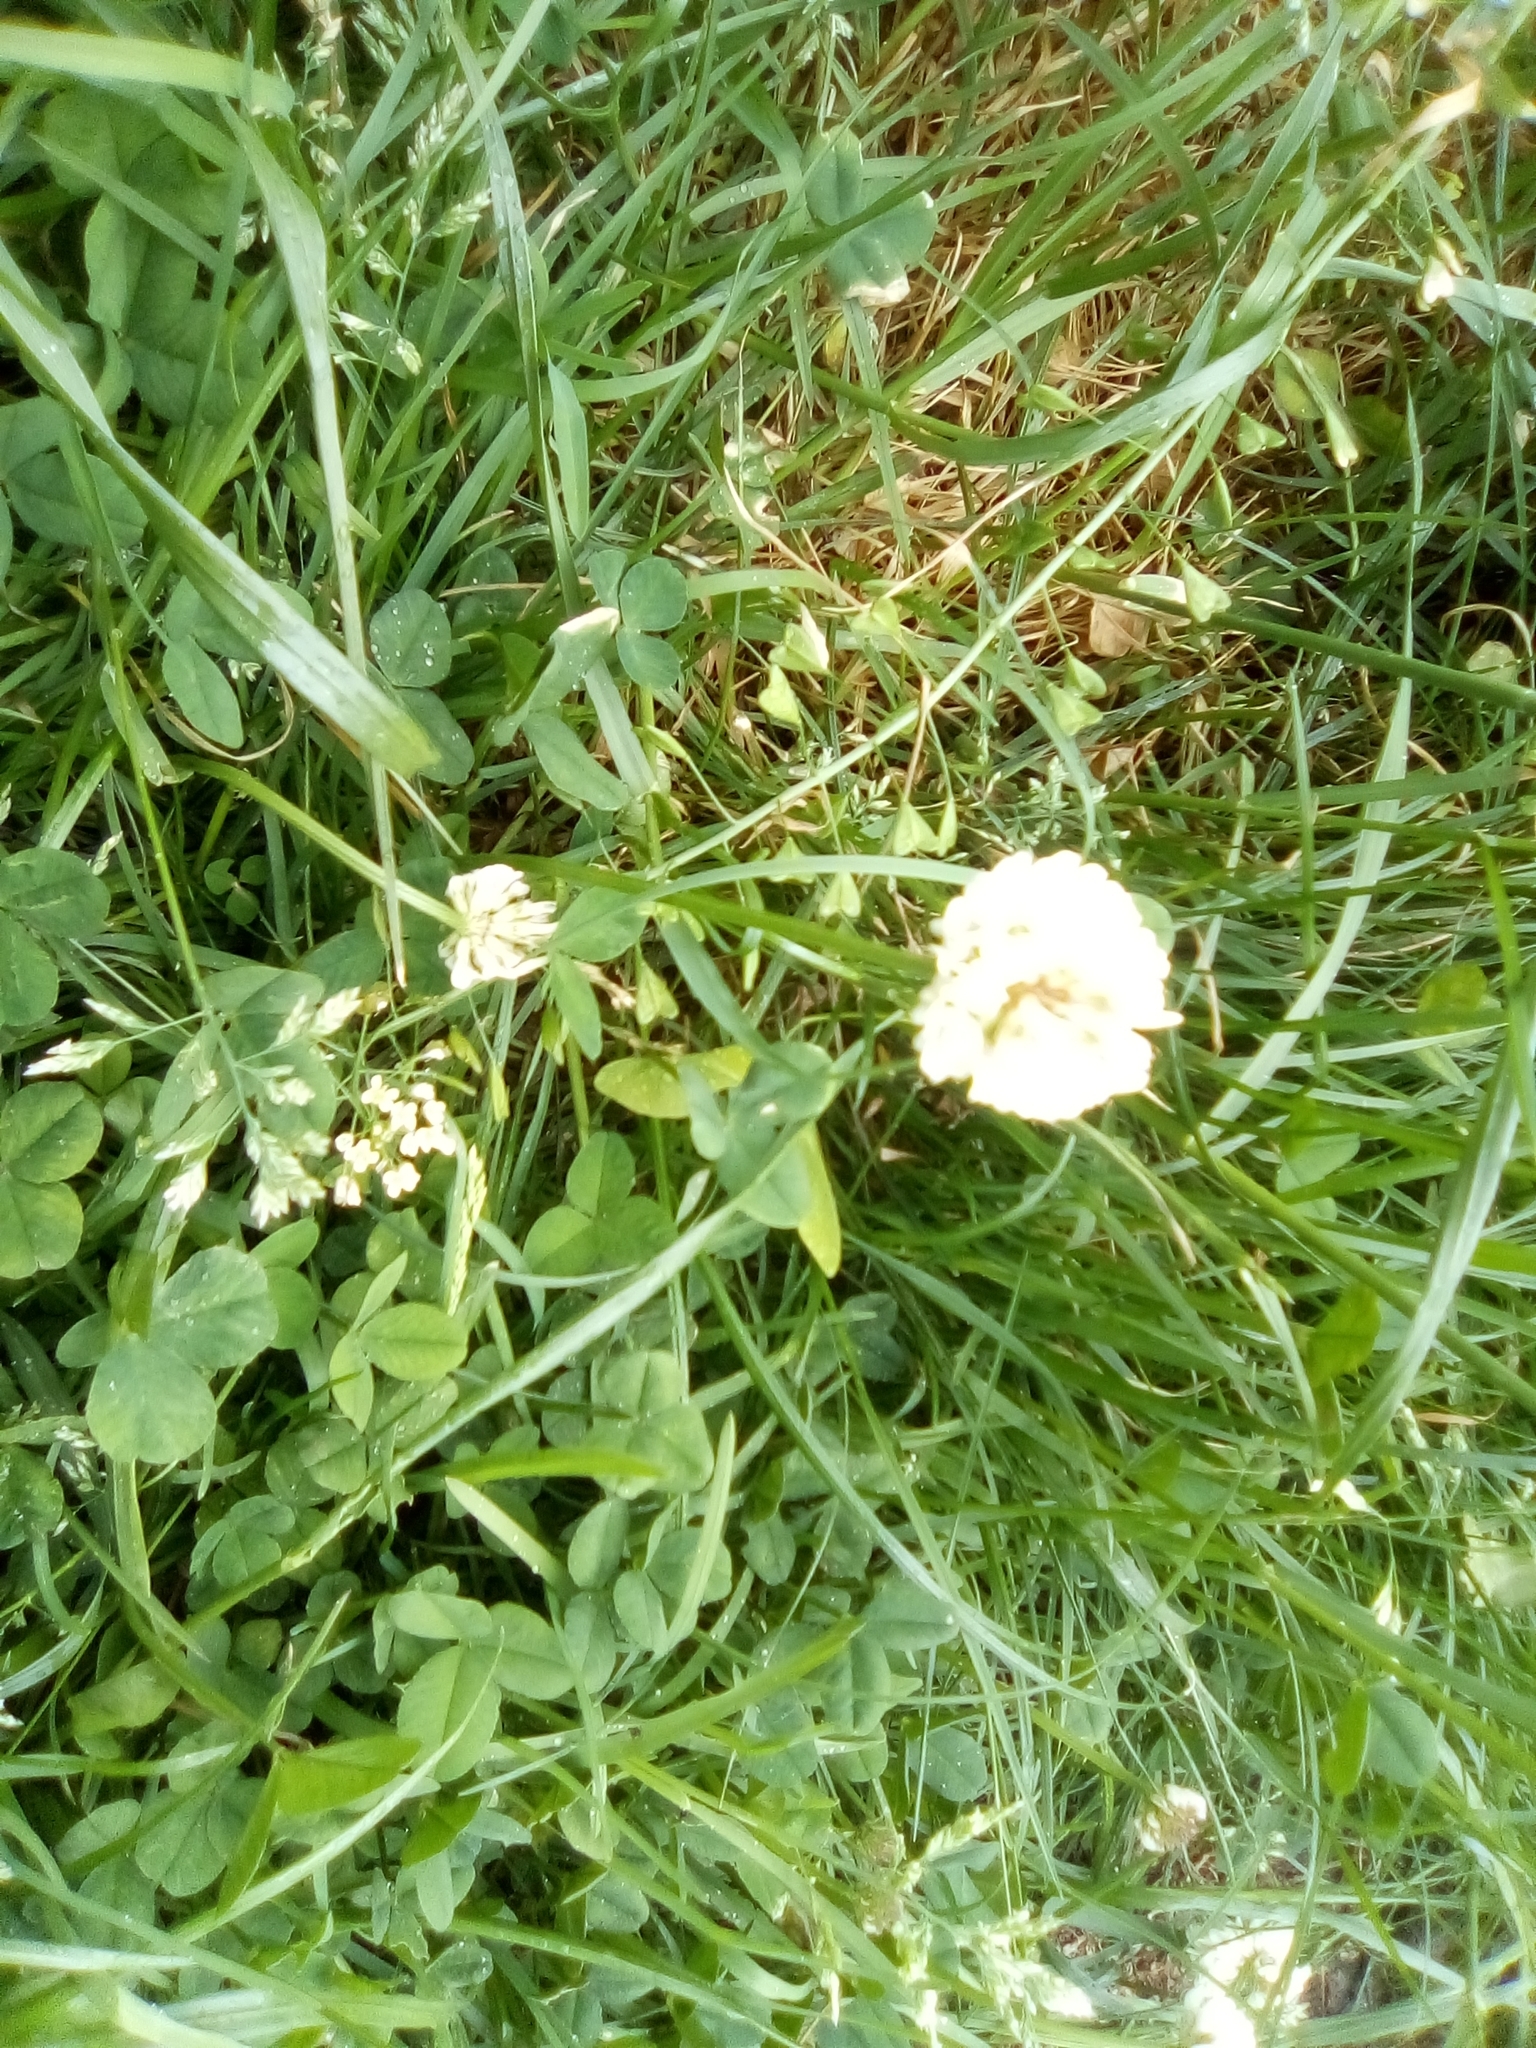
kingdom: Plantae
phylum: Tracheophyta
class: Magnoliopsida
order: Fabales
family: Fabaceae
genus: Trifolium
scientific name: Trifolium repens
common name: White clover
